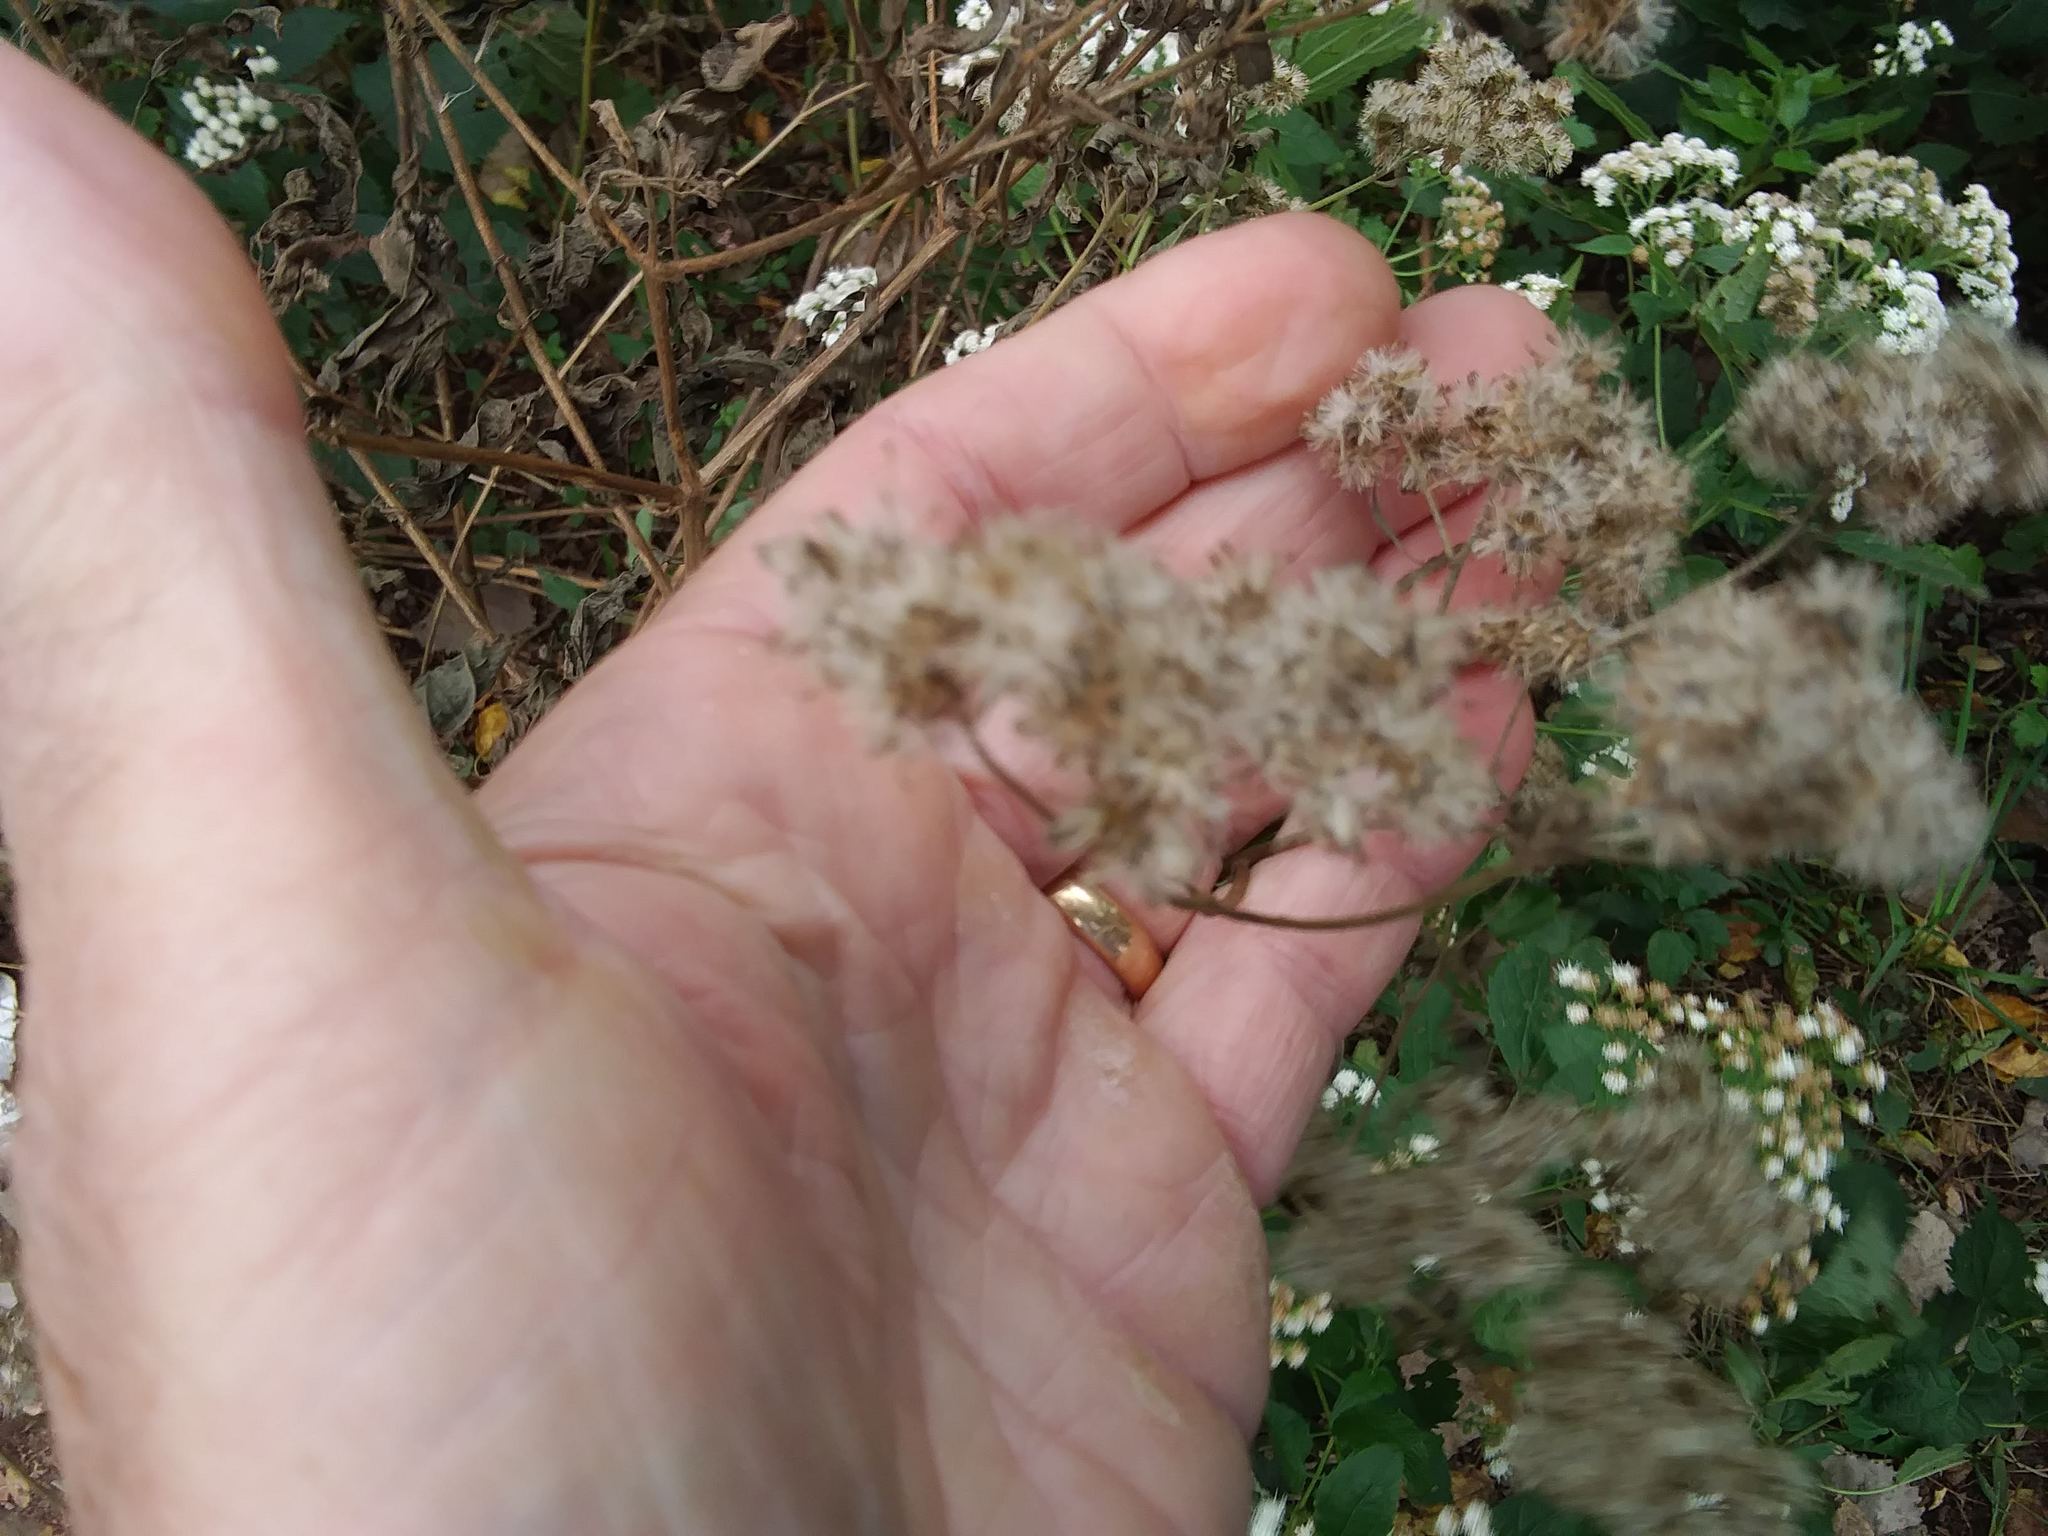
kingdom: Plantae
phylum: Tracheophyta
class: Magnoliopsida
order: Asterales
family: Asteraceae
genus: Ageratina
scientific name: Ageratina altissima
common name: White snakeroot
